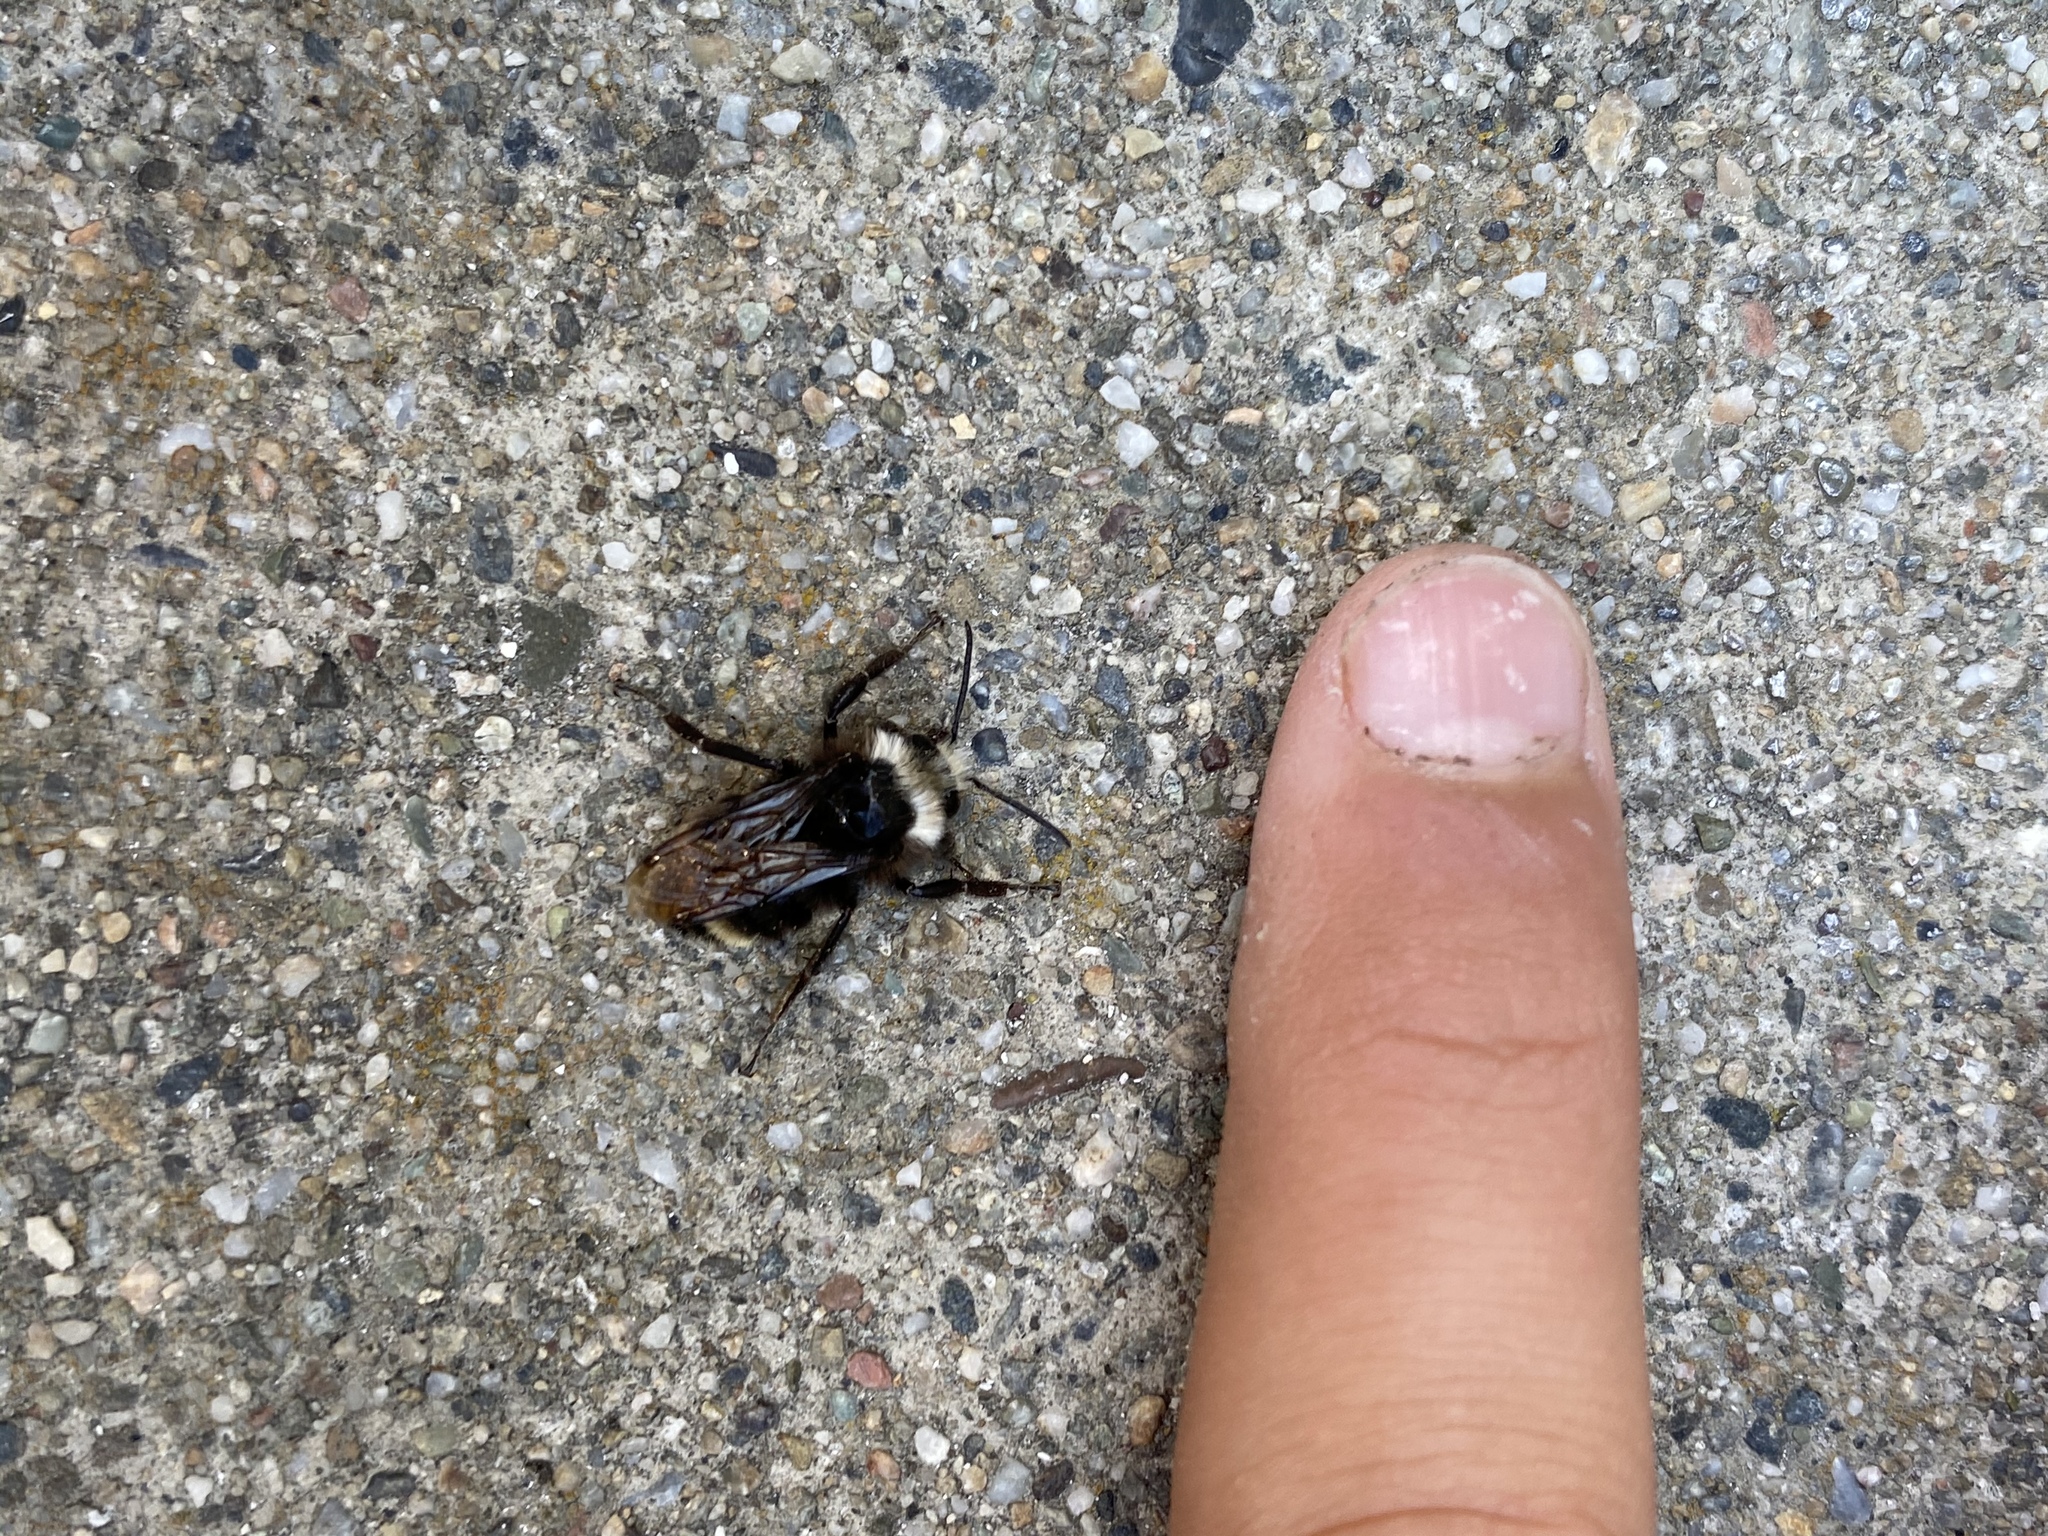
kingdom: Animalia
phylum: Arthropoda
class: Insecta
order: Hymenoptera
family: Apidae
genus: Bombus
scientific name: Bombus vosnesenskii
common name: Vosnesensky bumble bee
